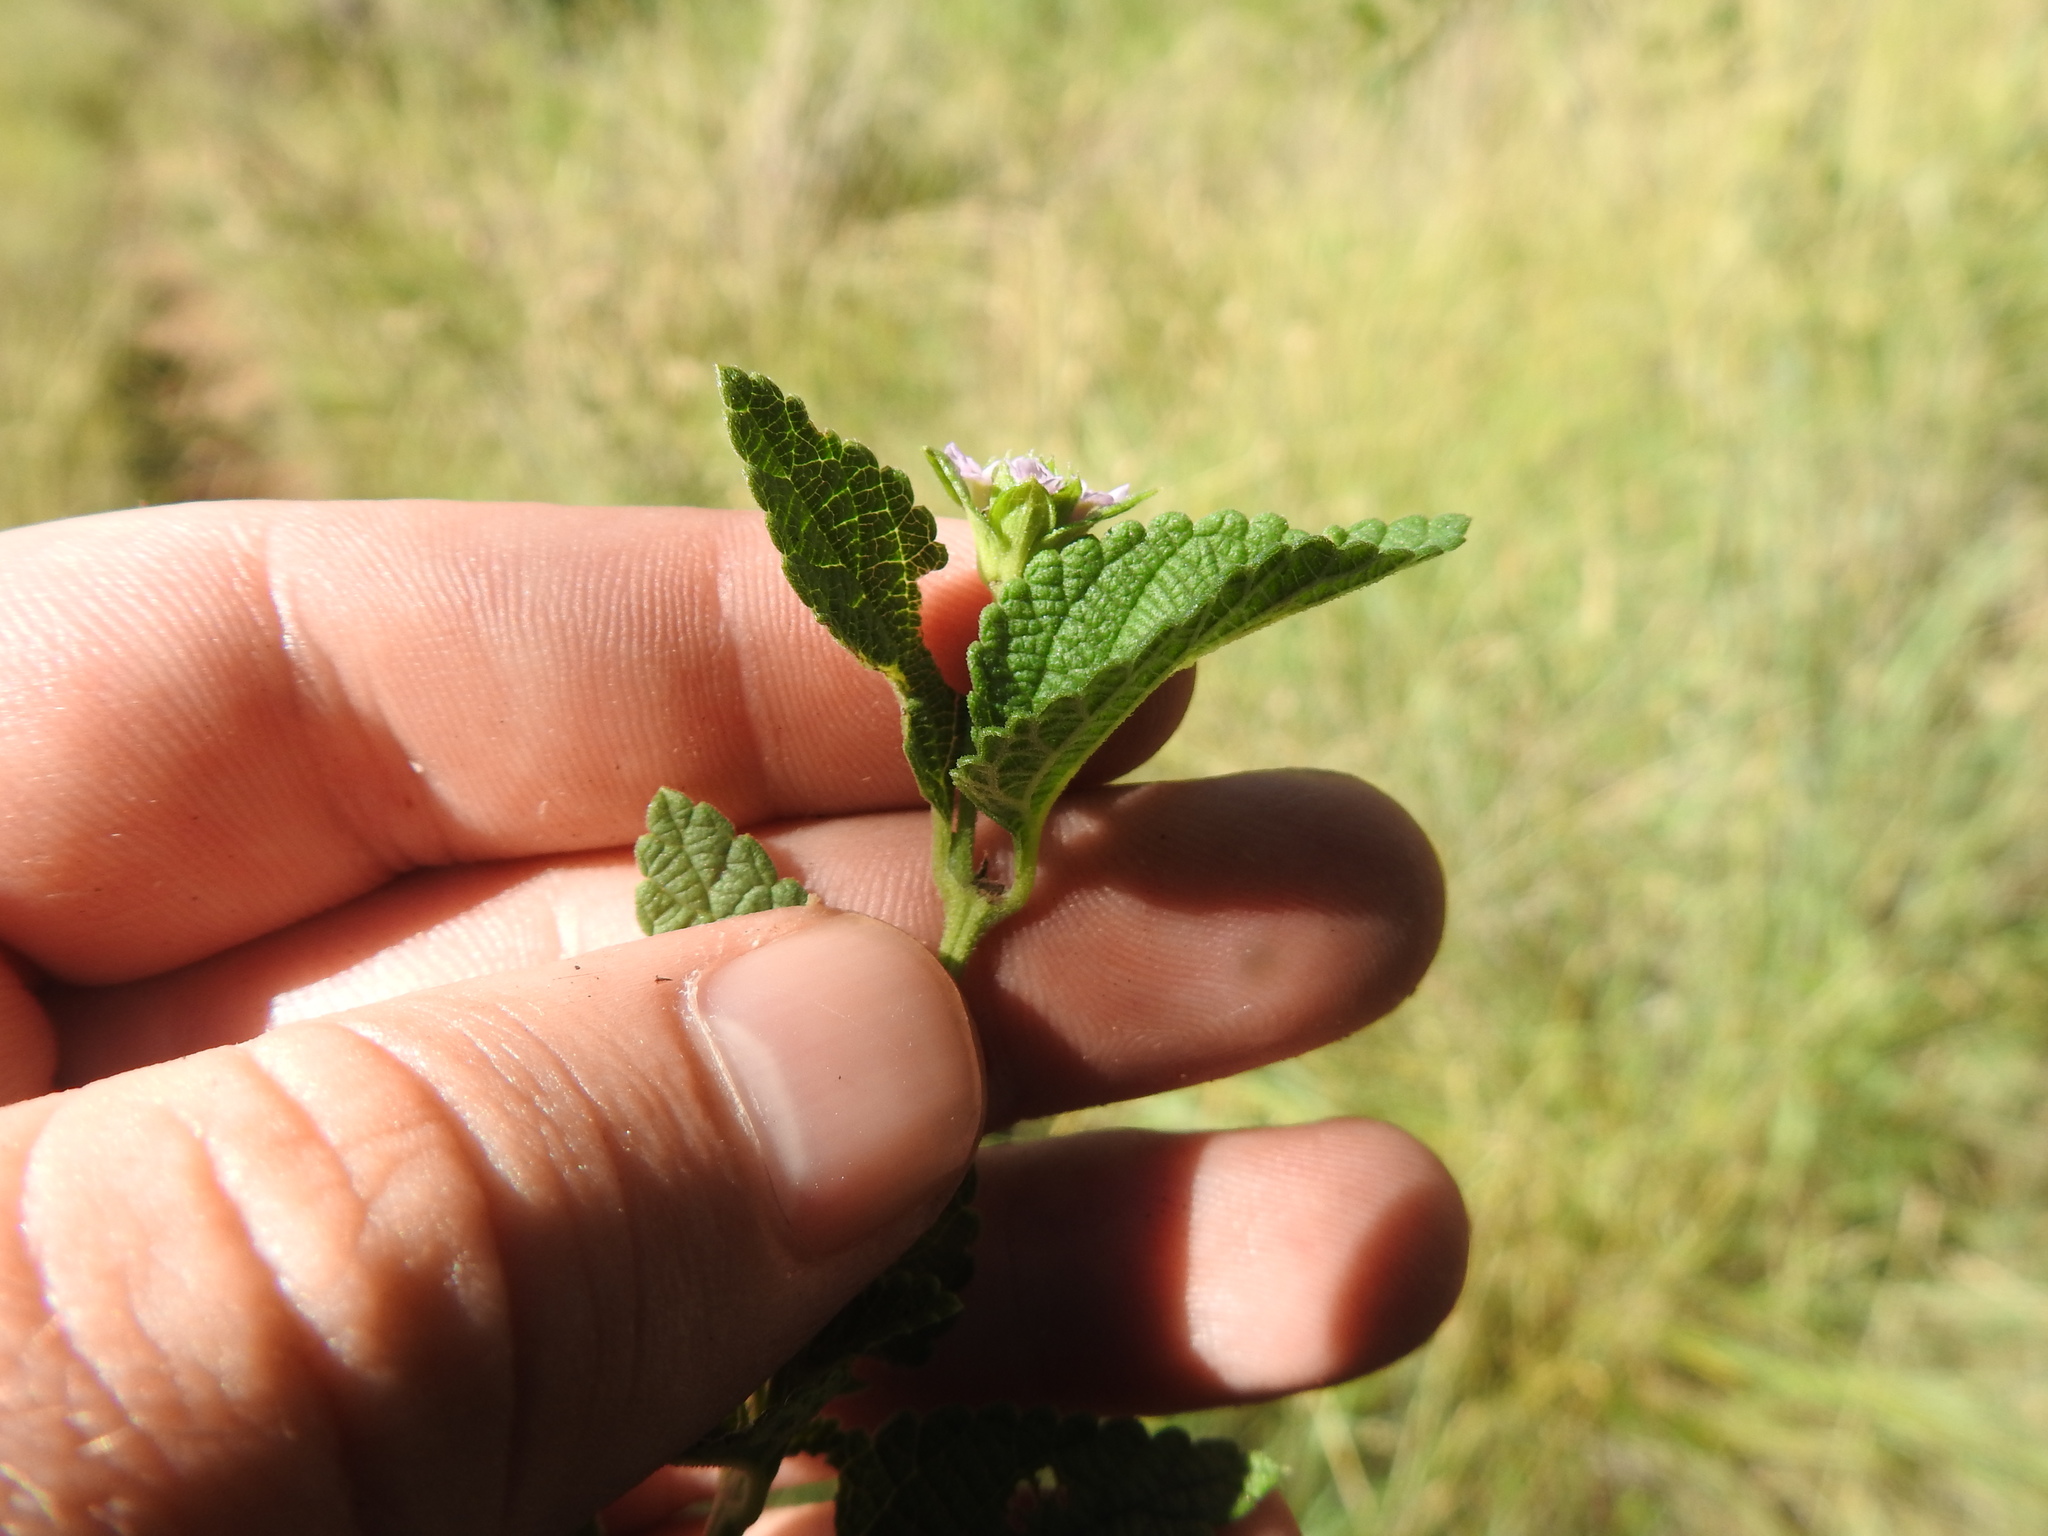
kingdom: Plantae
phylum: Tracheophyta
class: Magnoliopsida
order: Lamiales
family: Verbenaceae
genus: Lantana
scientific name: Lantana rugosa
